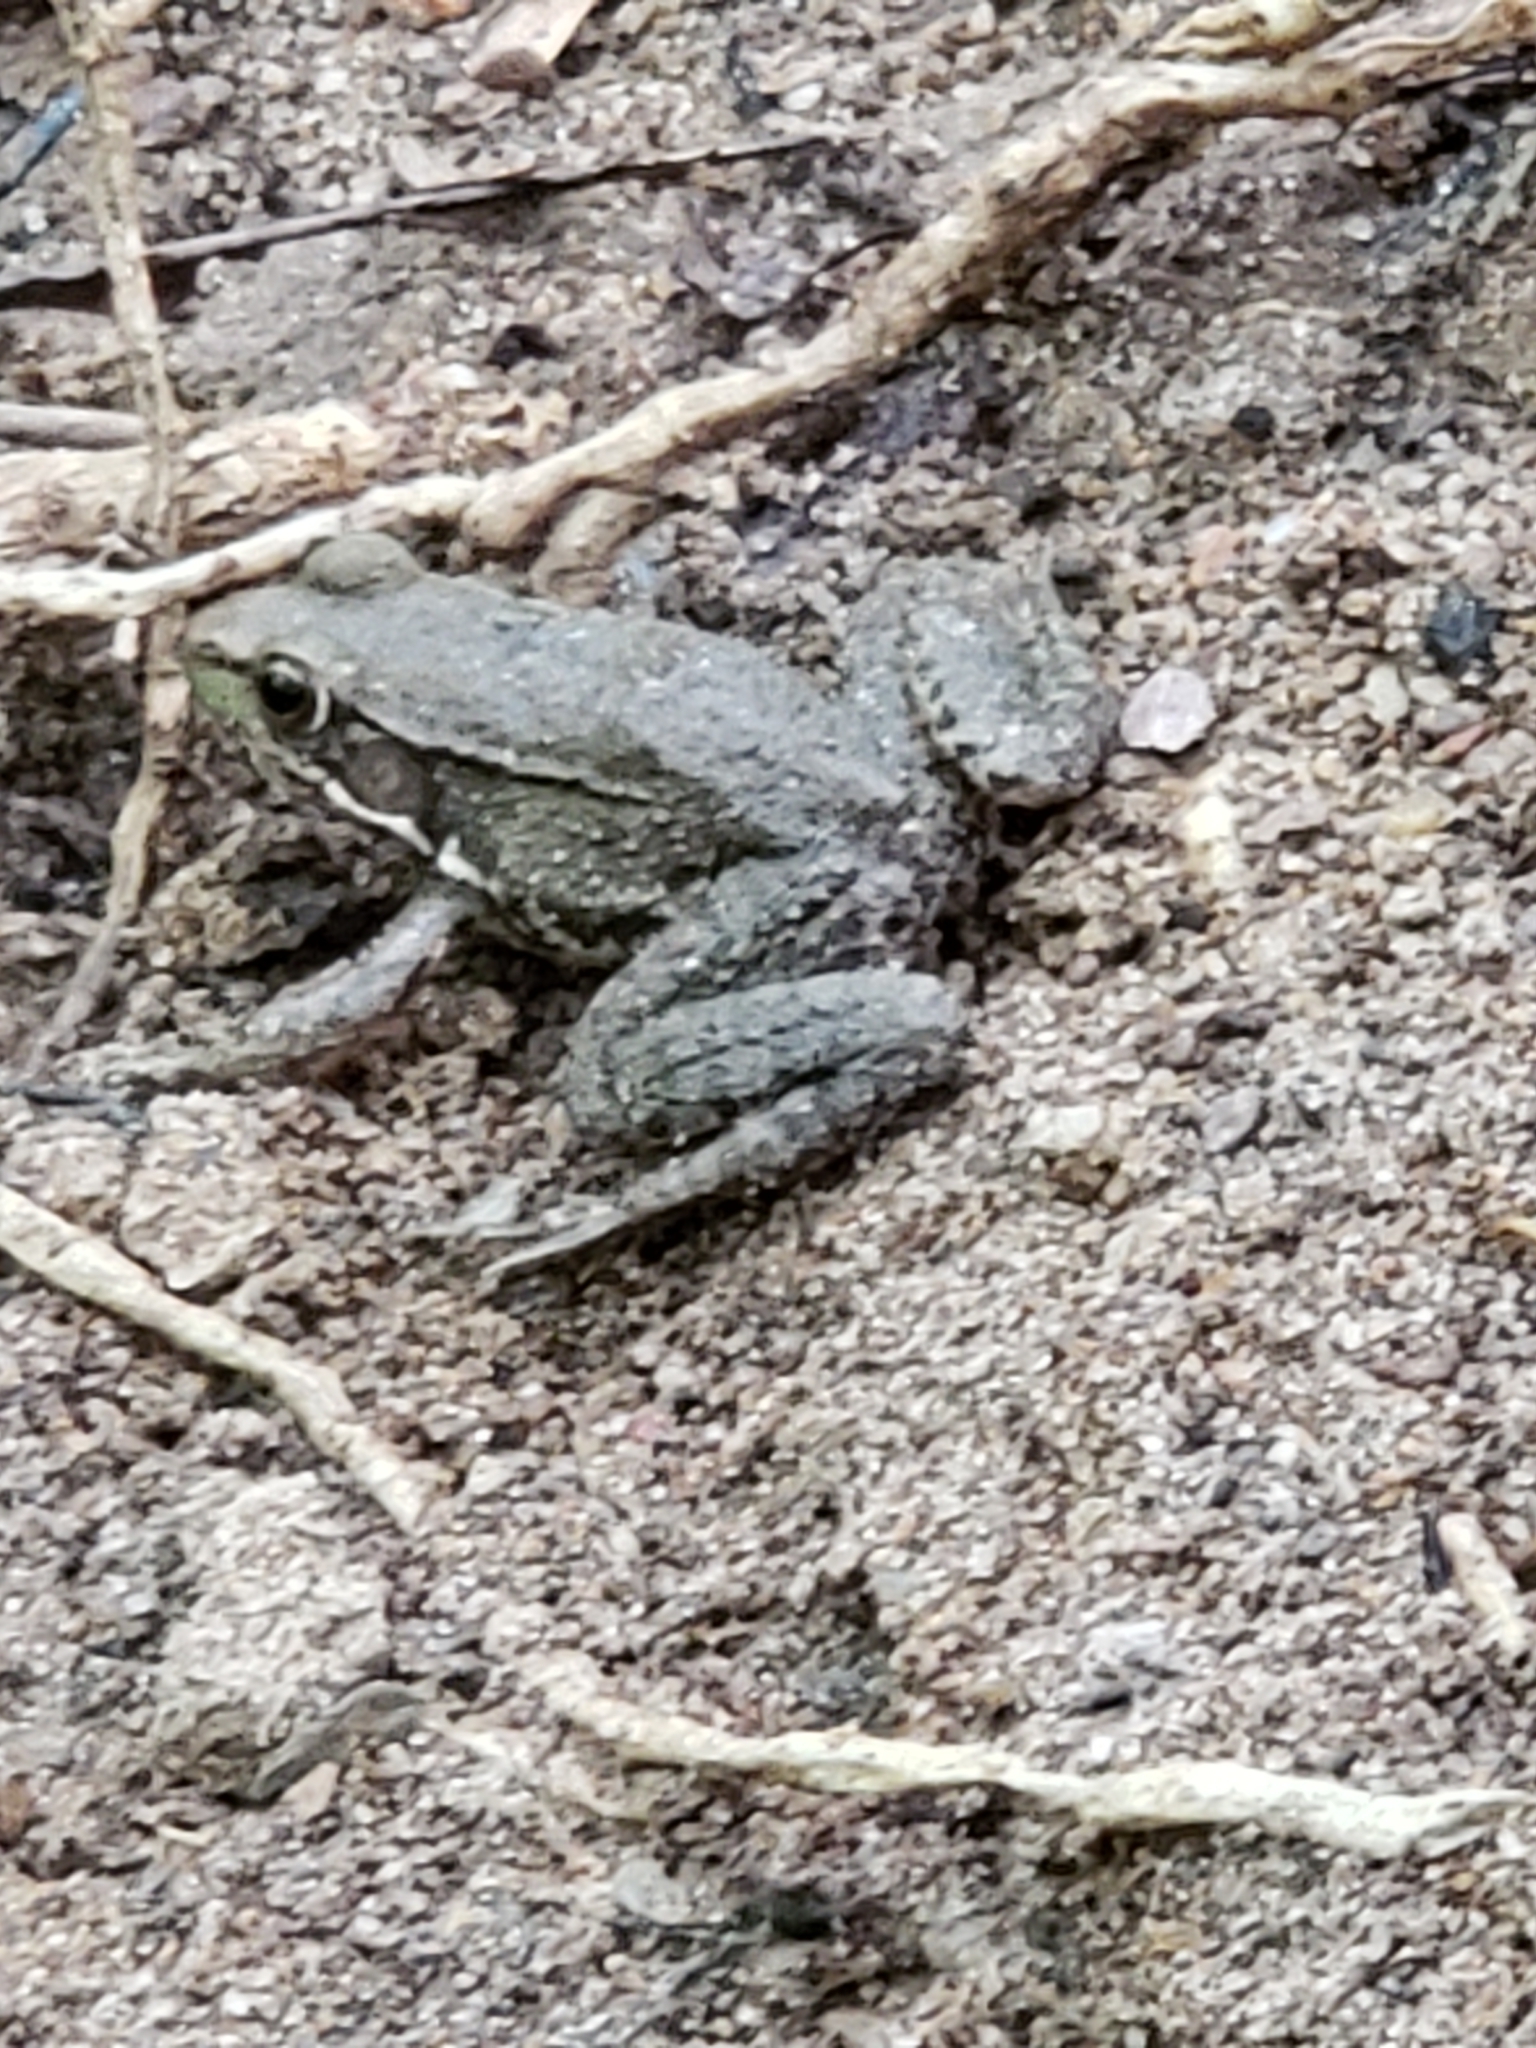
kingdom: Animalia
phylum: Chordata
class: Amphibia
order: Anura
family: Ranidae
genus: Lithobates
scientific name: Lithobates clamitans
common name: Green frog
